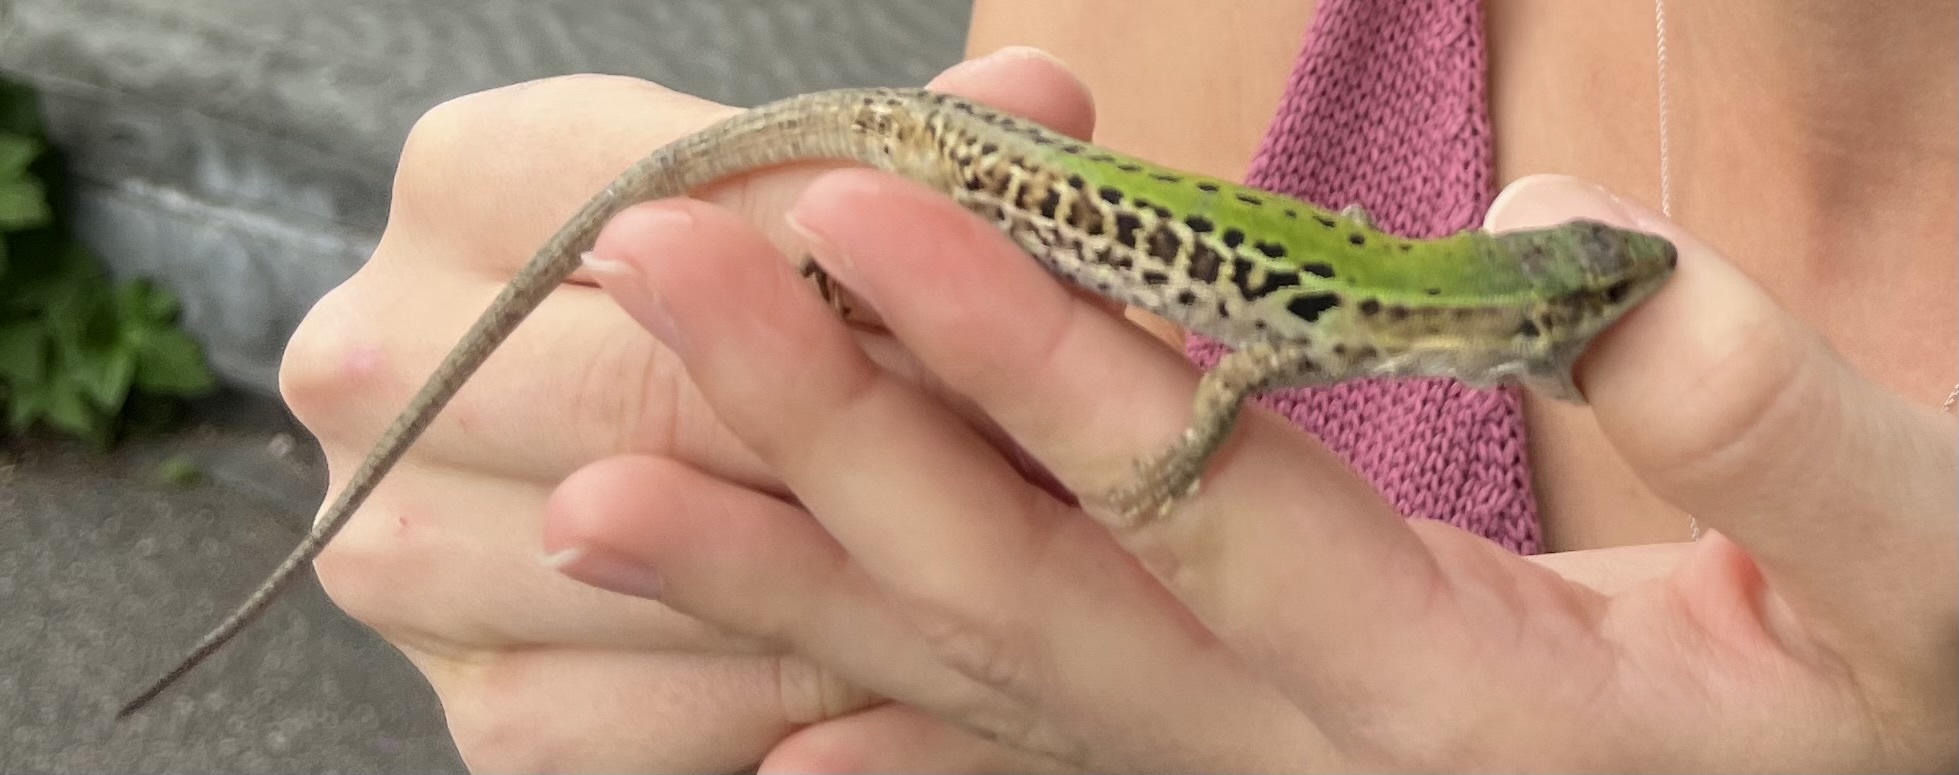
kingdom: Animalia
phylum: Chordata
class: Squamata
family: Lacertidae
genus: Podarcis
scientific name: Podarcis siculus
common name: Italian wall lizard
